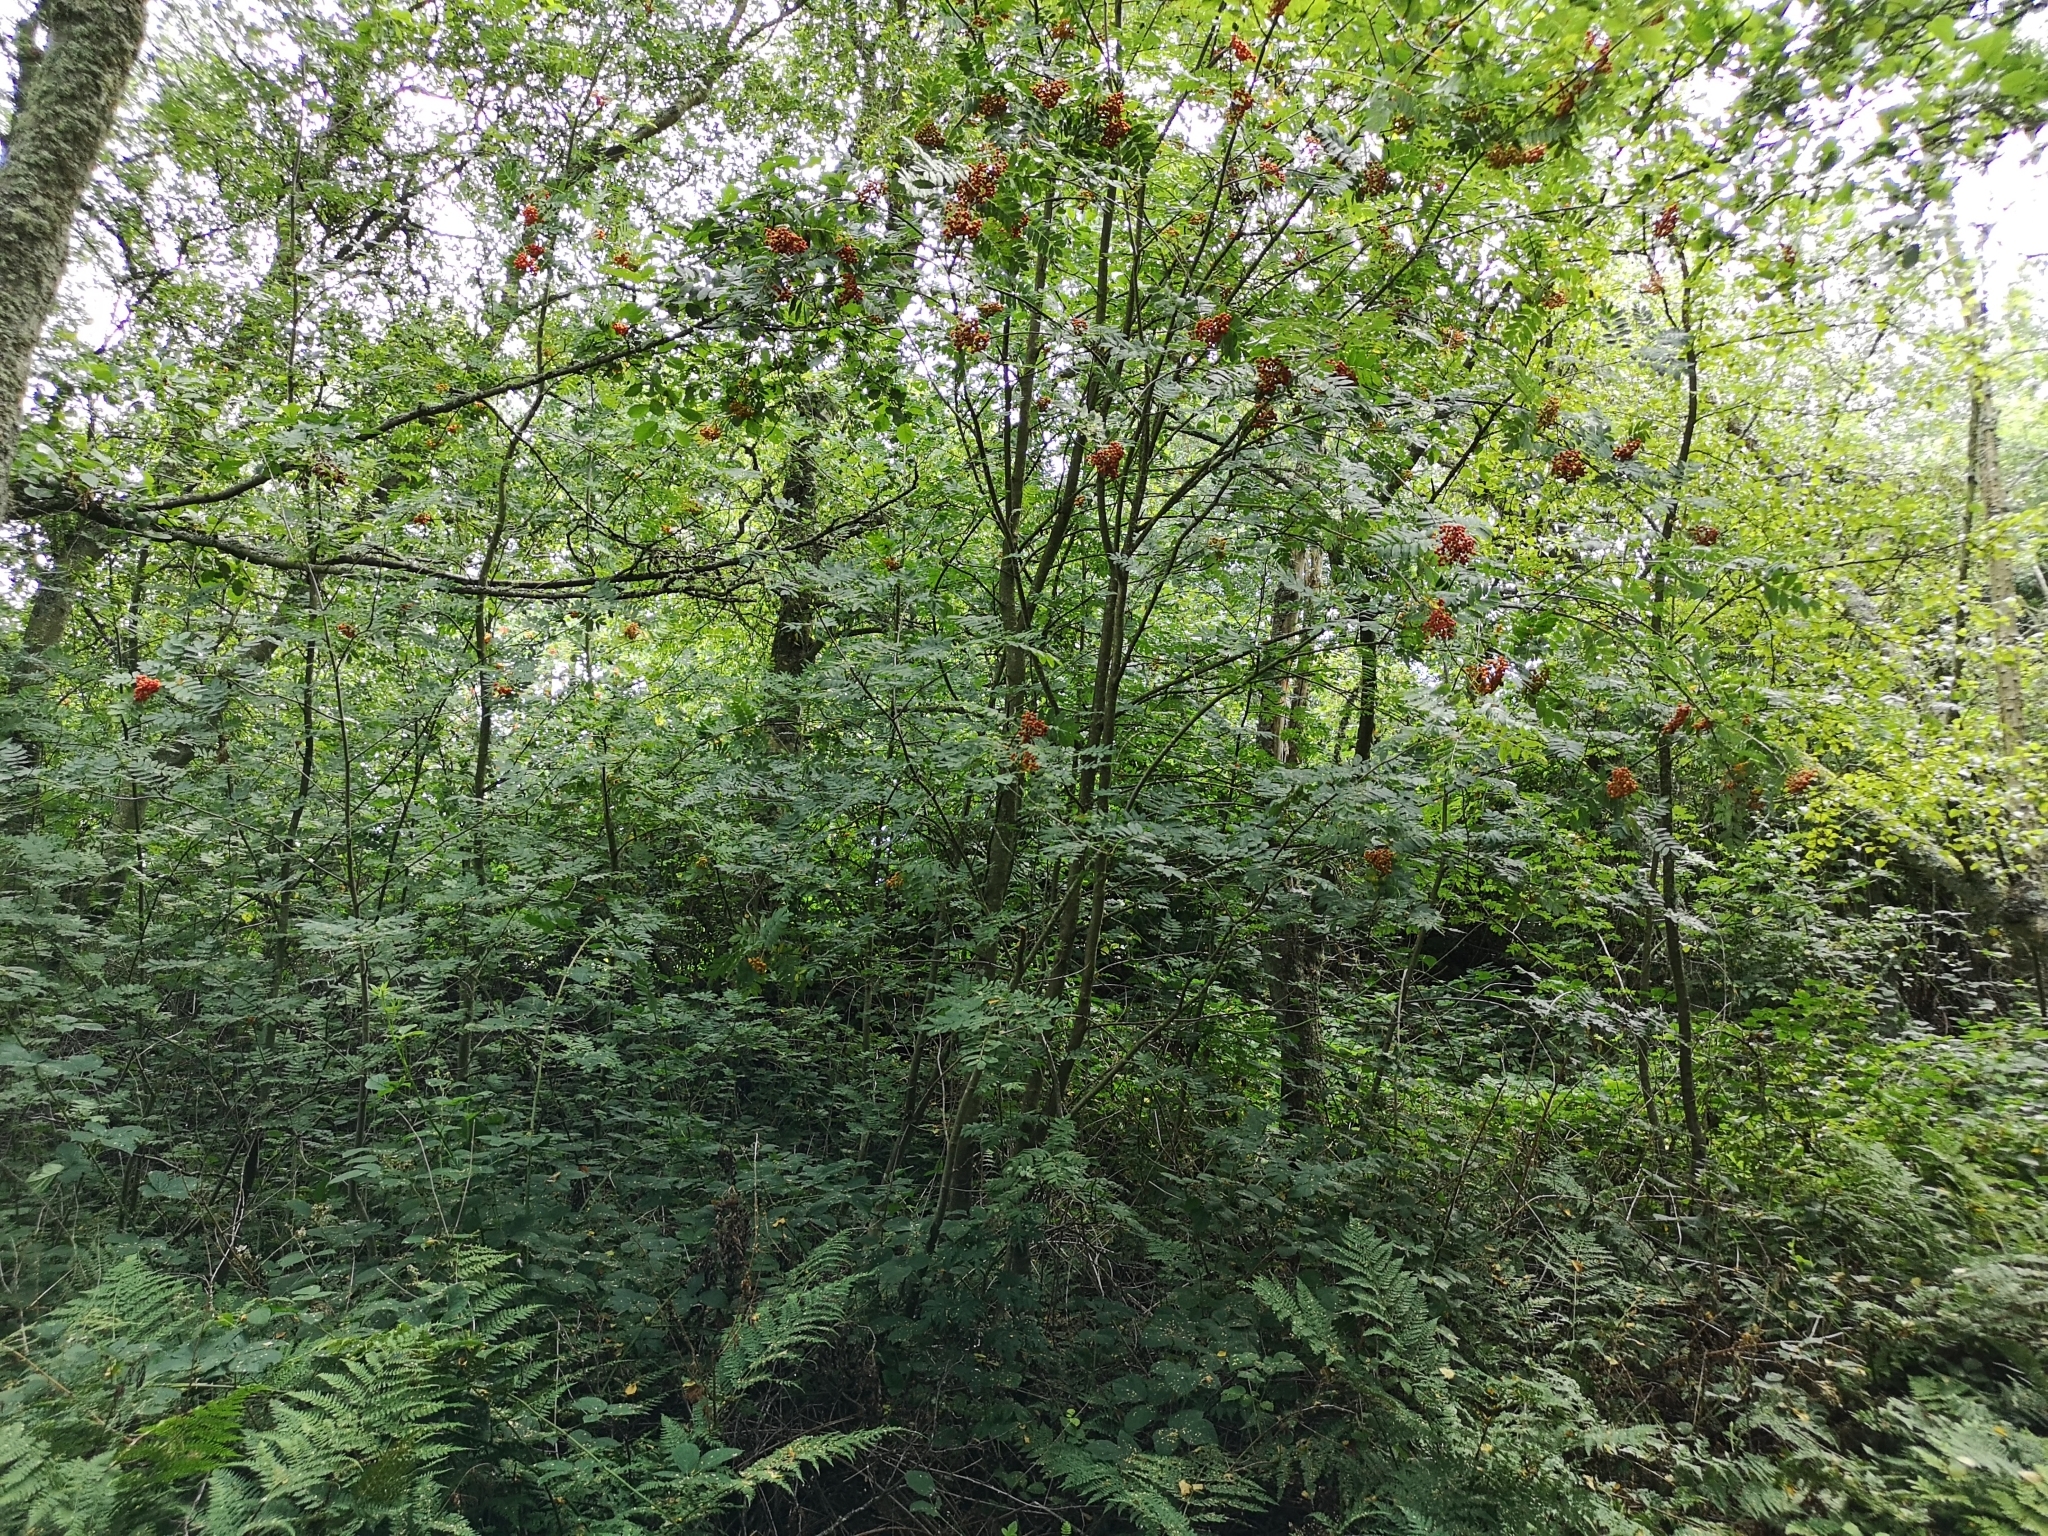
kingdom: Plantae
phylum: Tracheophyta
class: Magnoliopsida
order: Rosales
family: Rosaceae
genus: Sorbus
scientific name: Sorbus aucuparia
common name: Rowan
